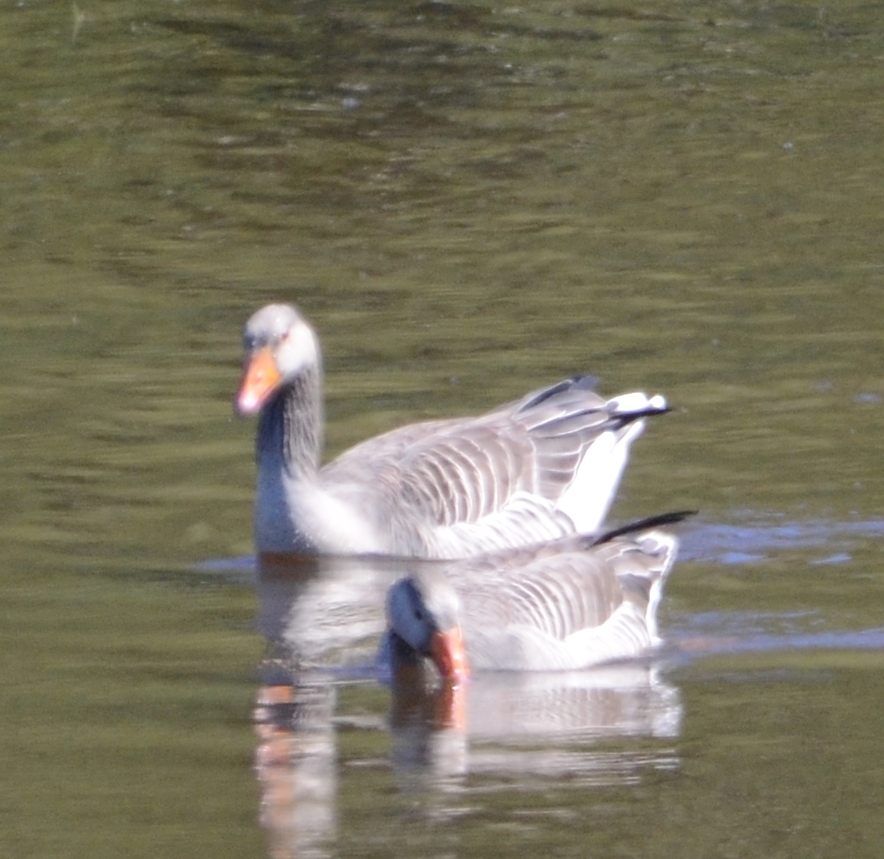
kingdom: Animalia
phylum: Chordata
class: Aves
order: Anseriformes
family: Anatidae
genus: Anser
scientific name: Anser anser
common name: Greylag goose
